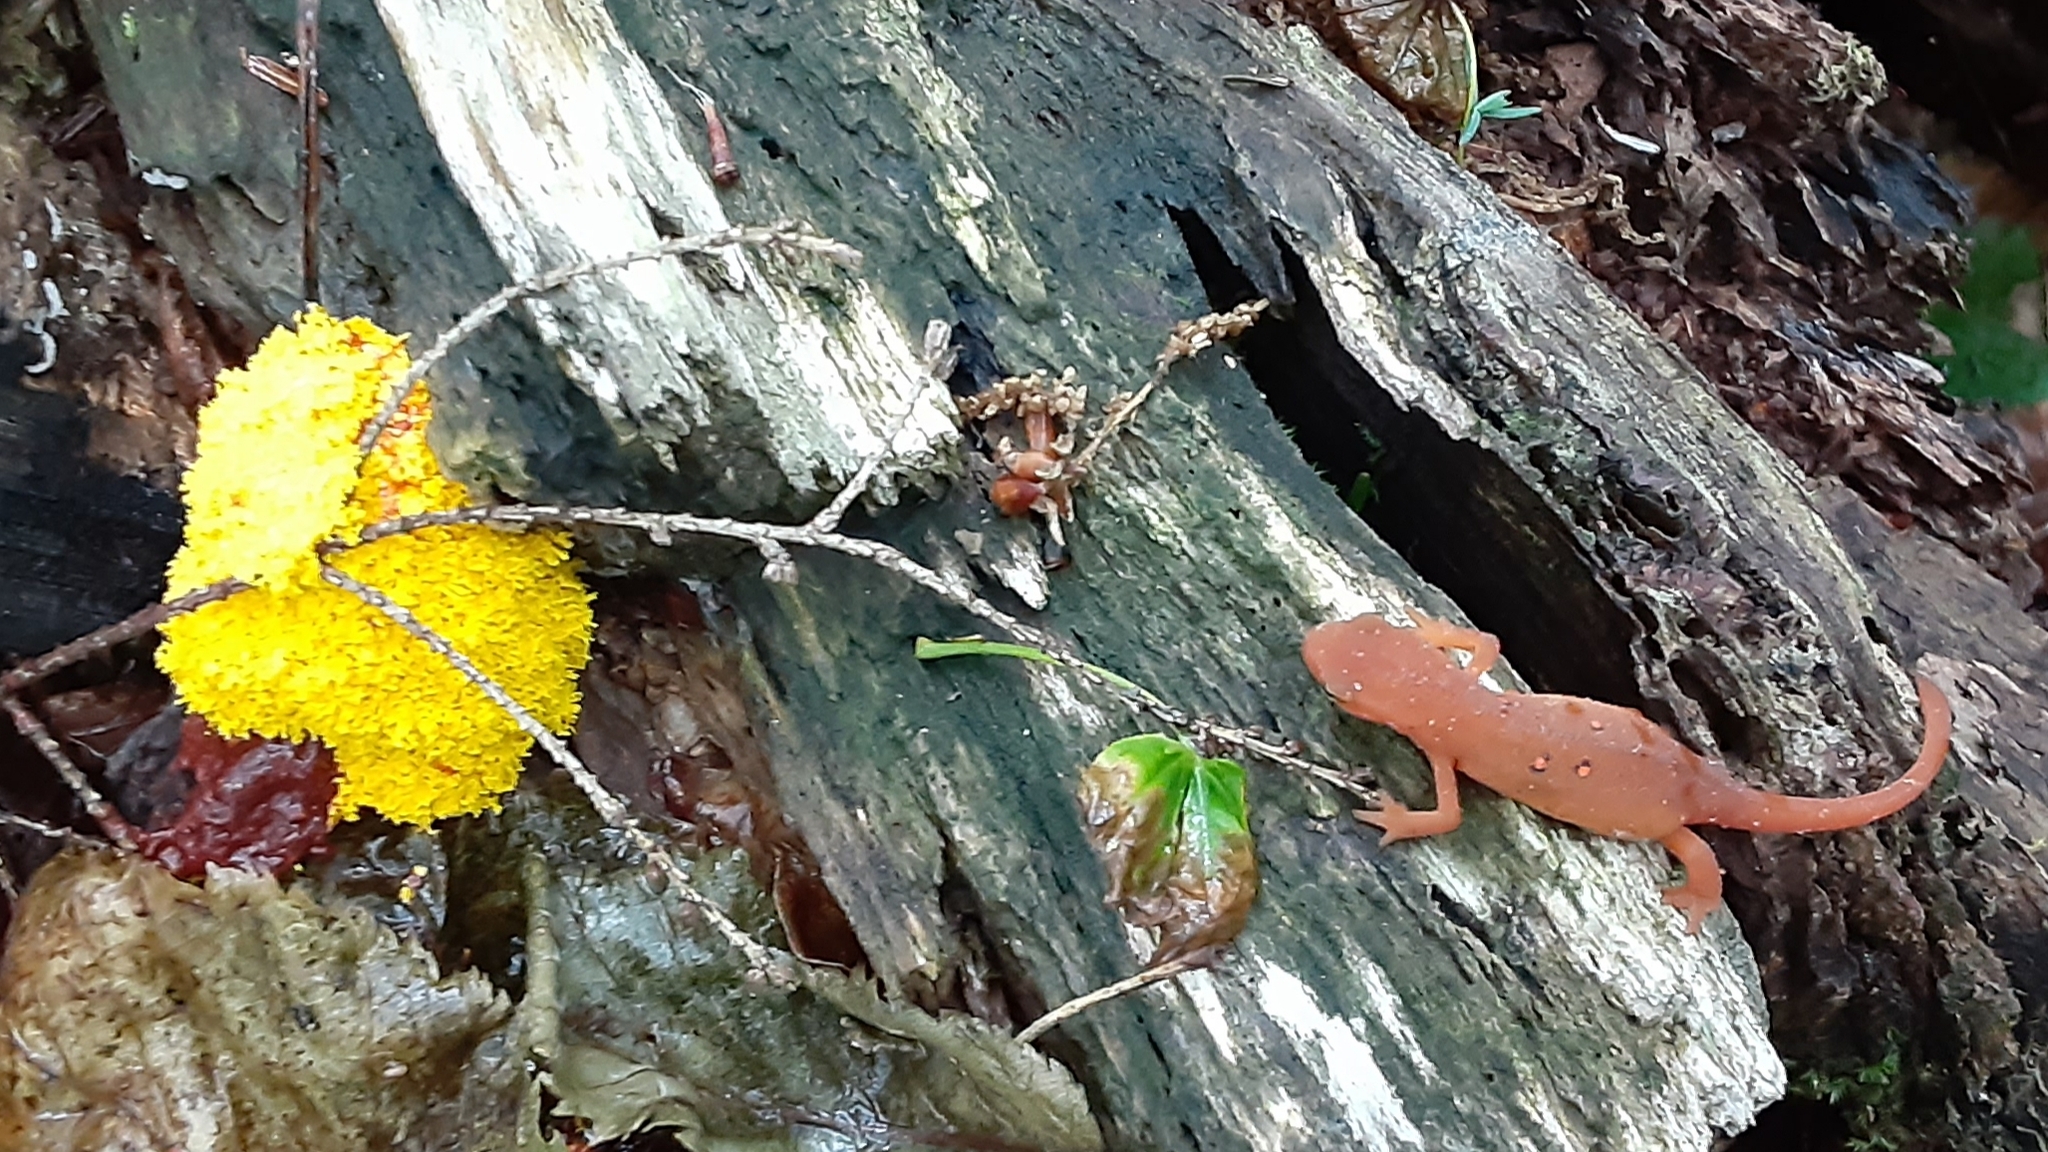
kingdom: Animalia
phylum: Chordata
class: Amphibia
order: Caudata
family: Salamandridae
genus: Notophthalmus
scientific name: Notophthalmus viridescens
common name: Eastern newt
